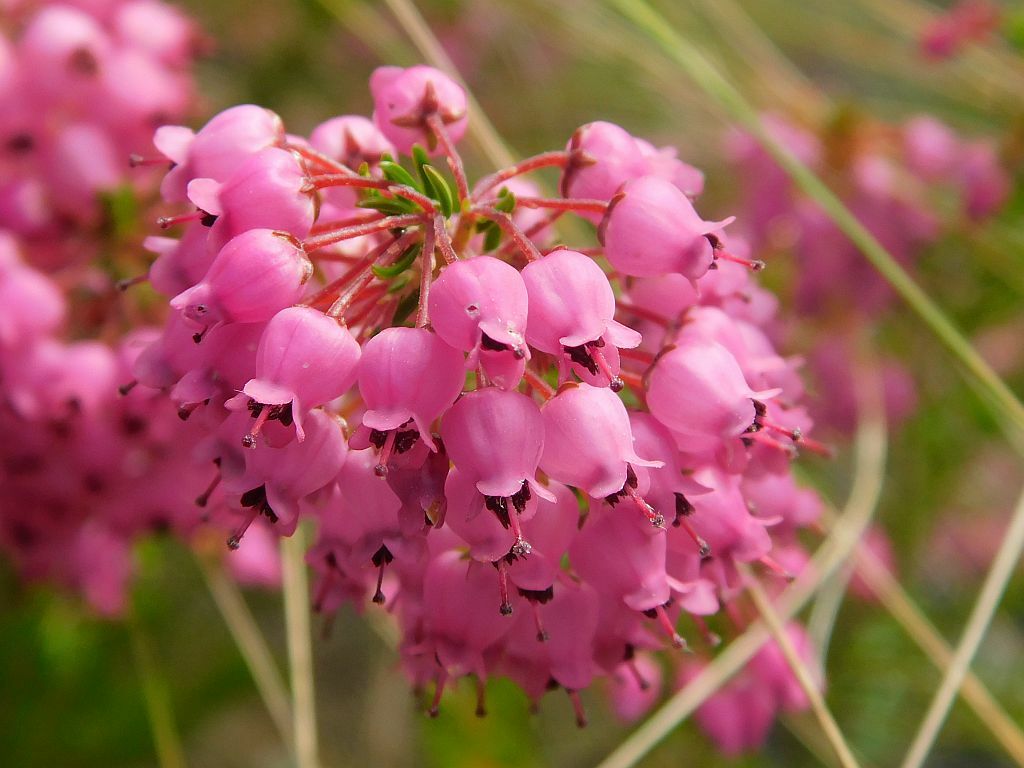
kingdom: Plantae
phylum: Tracheophyta
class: Magnoliopsida
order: Ericales
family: Ericaceae
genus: Erica
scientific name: Erica lateralis
